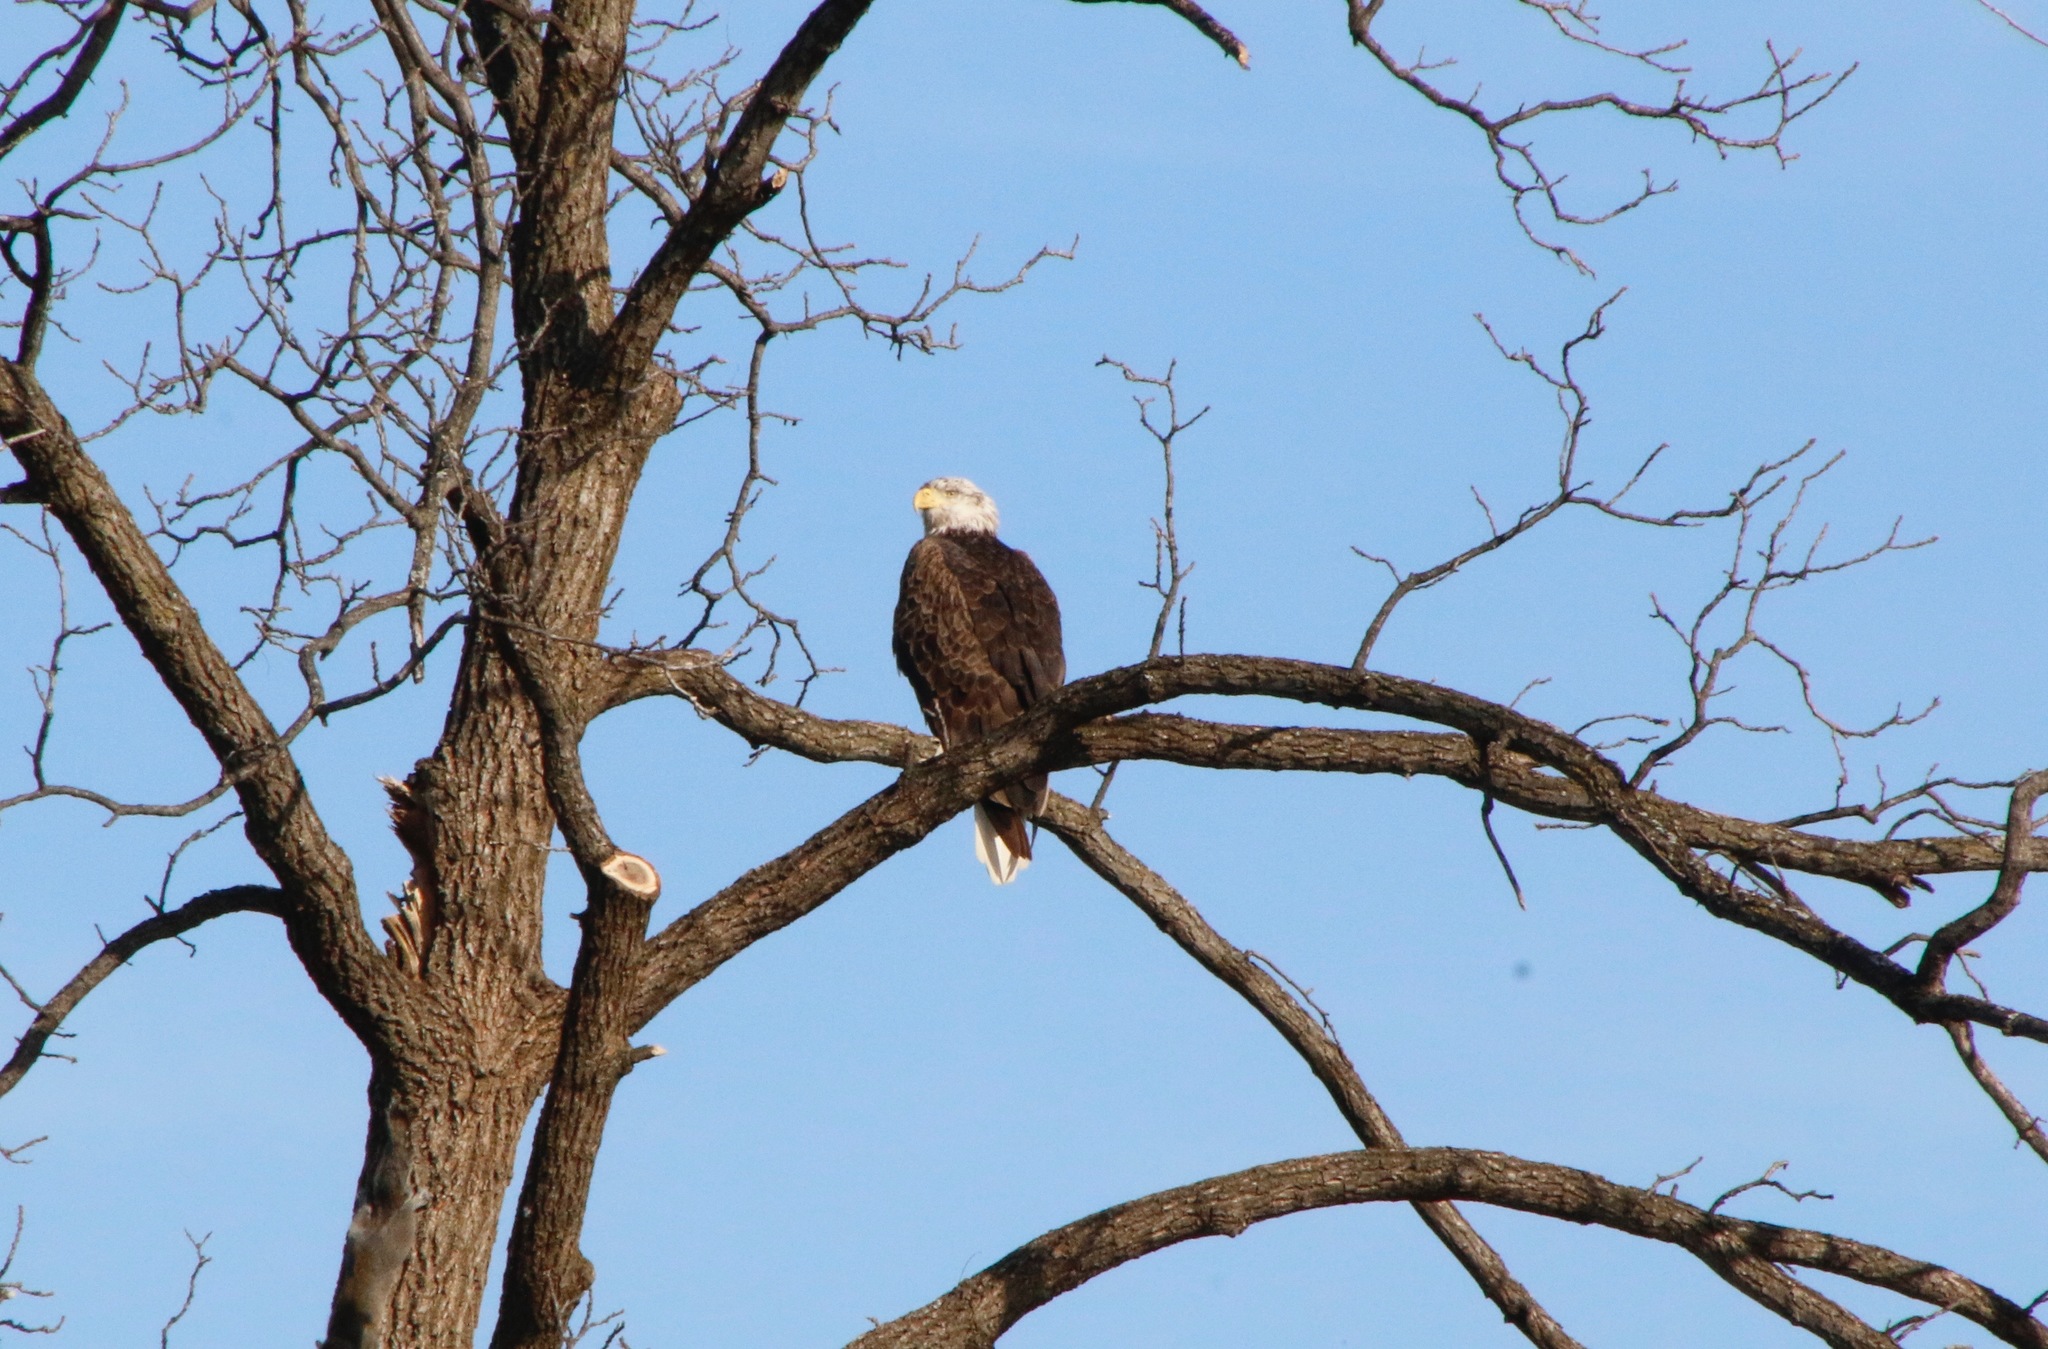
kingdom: Animalia
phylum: Chordata
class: Aves
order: Accipitriformes
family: Accipitridae
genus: Haliaeetus
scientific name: Haliaeetus leucocephalus
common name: Bald eagle
